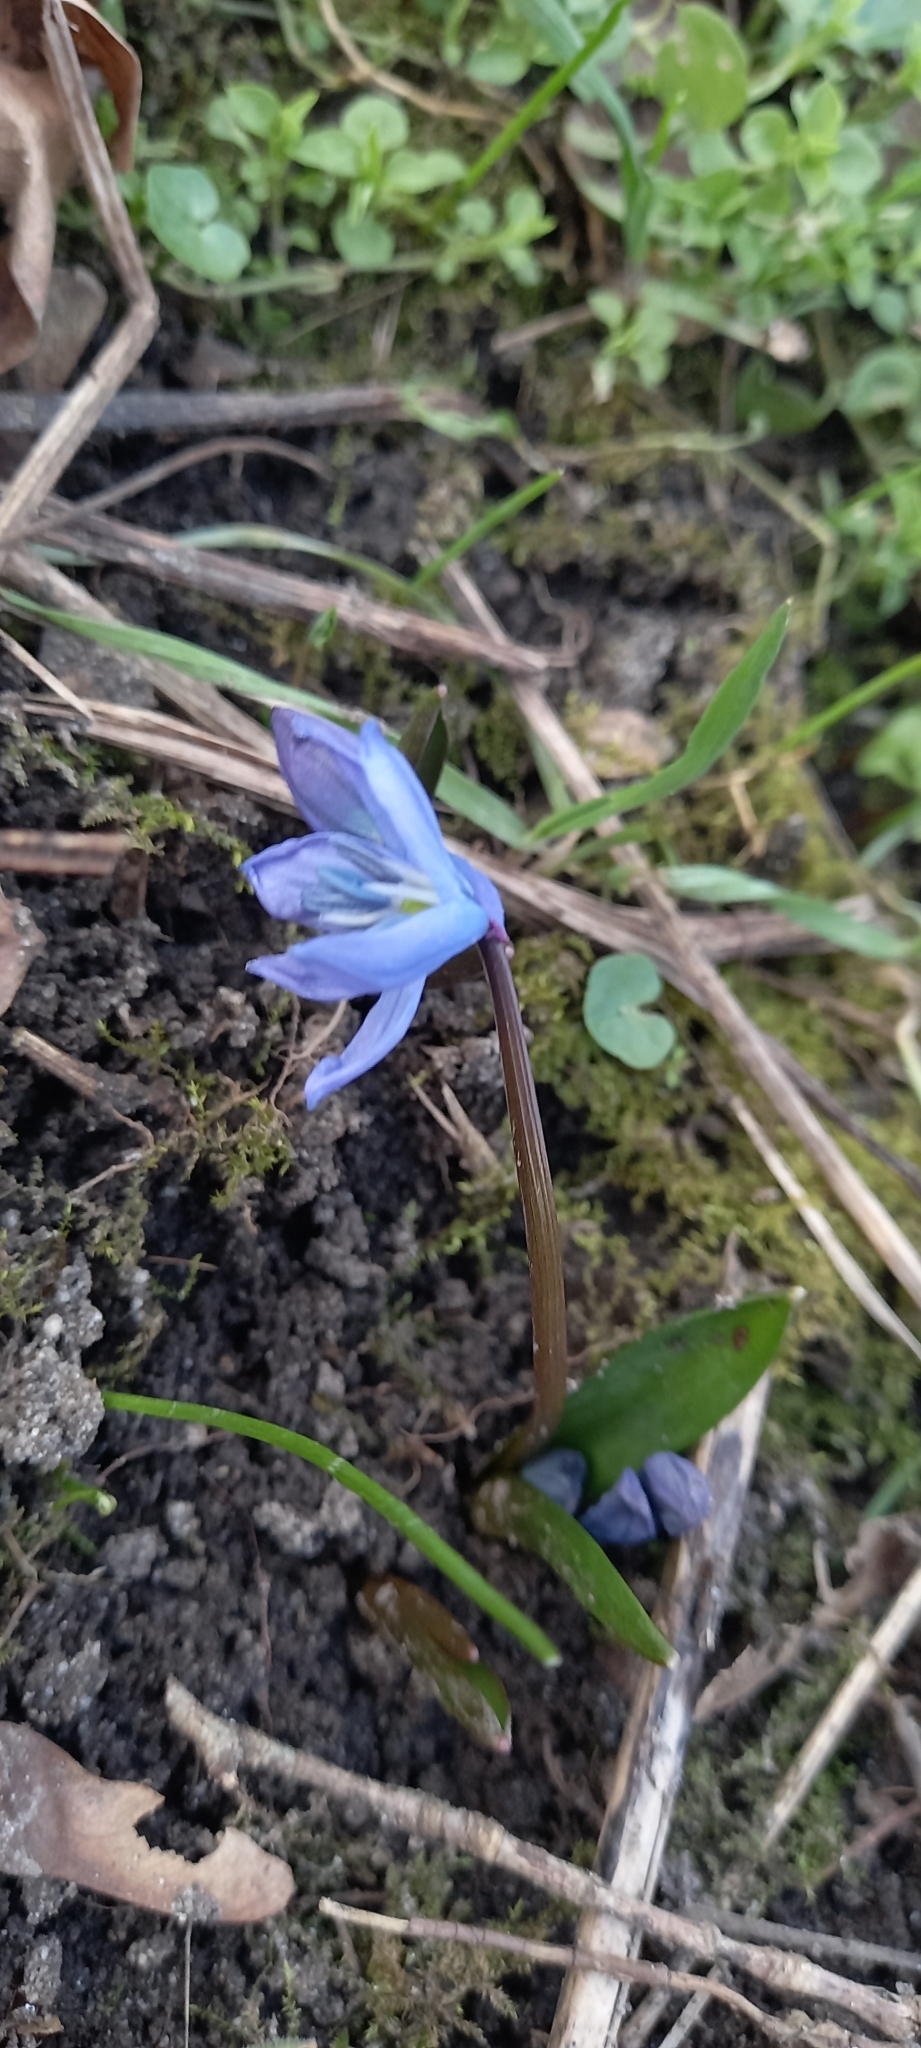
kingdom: Plantae
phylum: Tracheophyta
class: Liliopsida
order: Asparagales
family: Asparagaceae
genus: Scilla
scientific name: Scilla siberica
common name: Siberian squill
